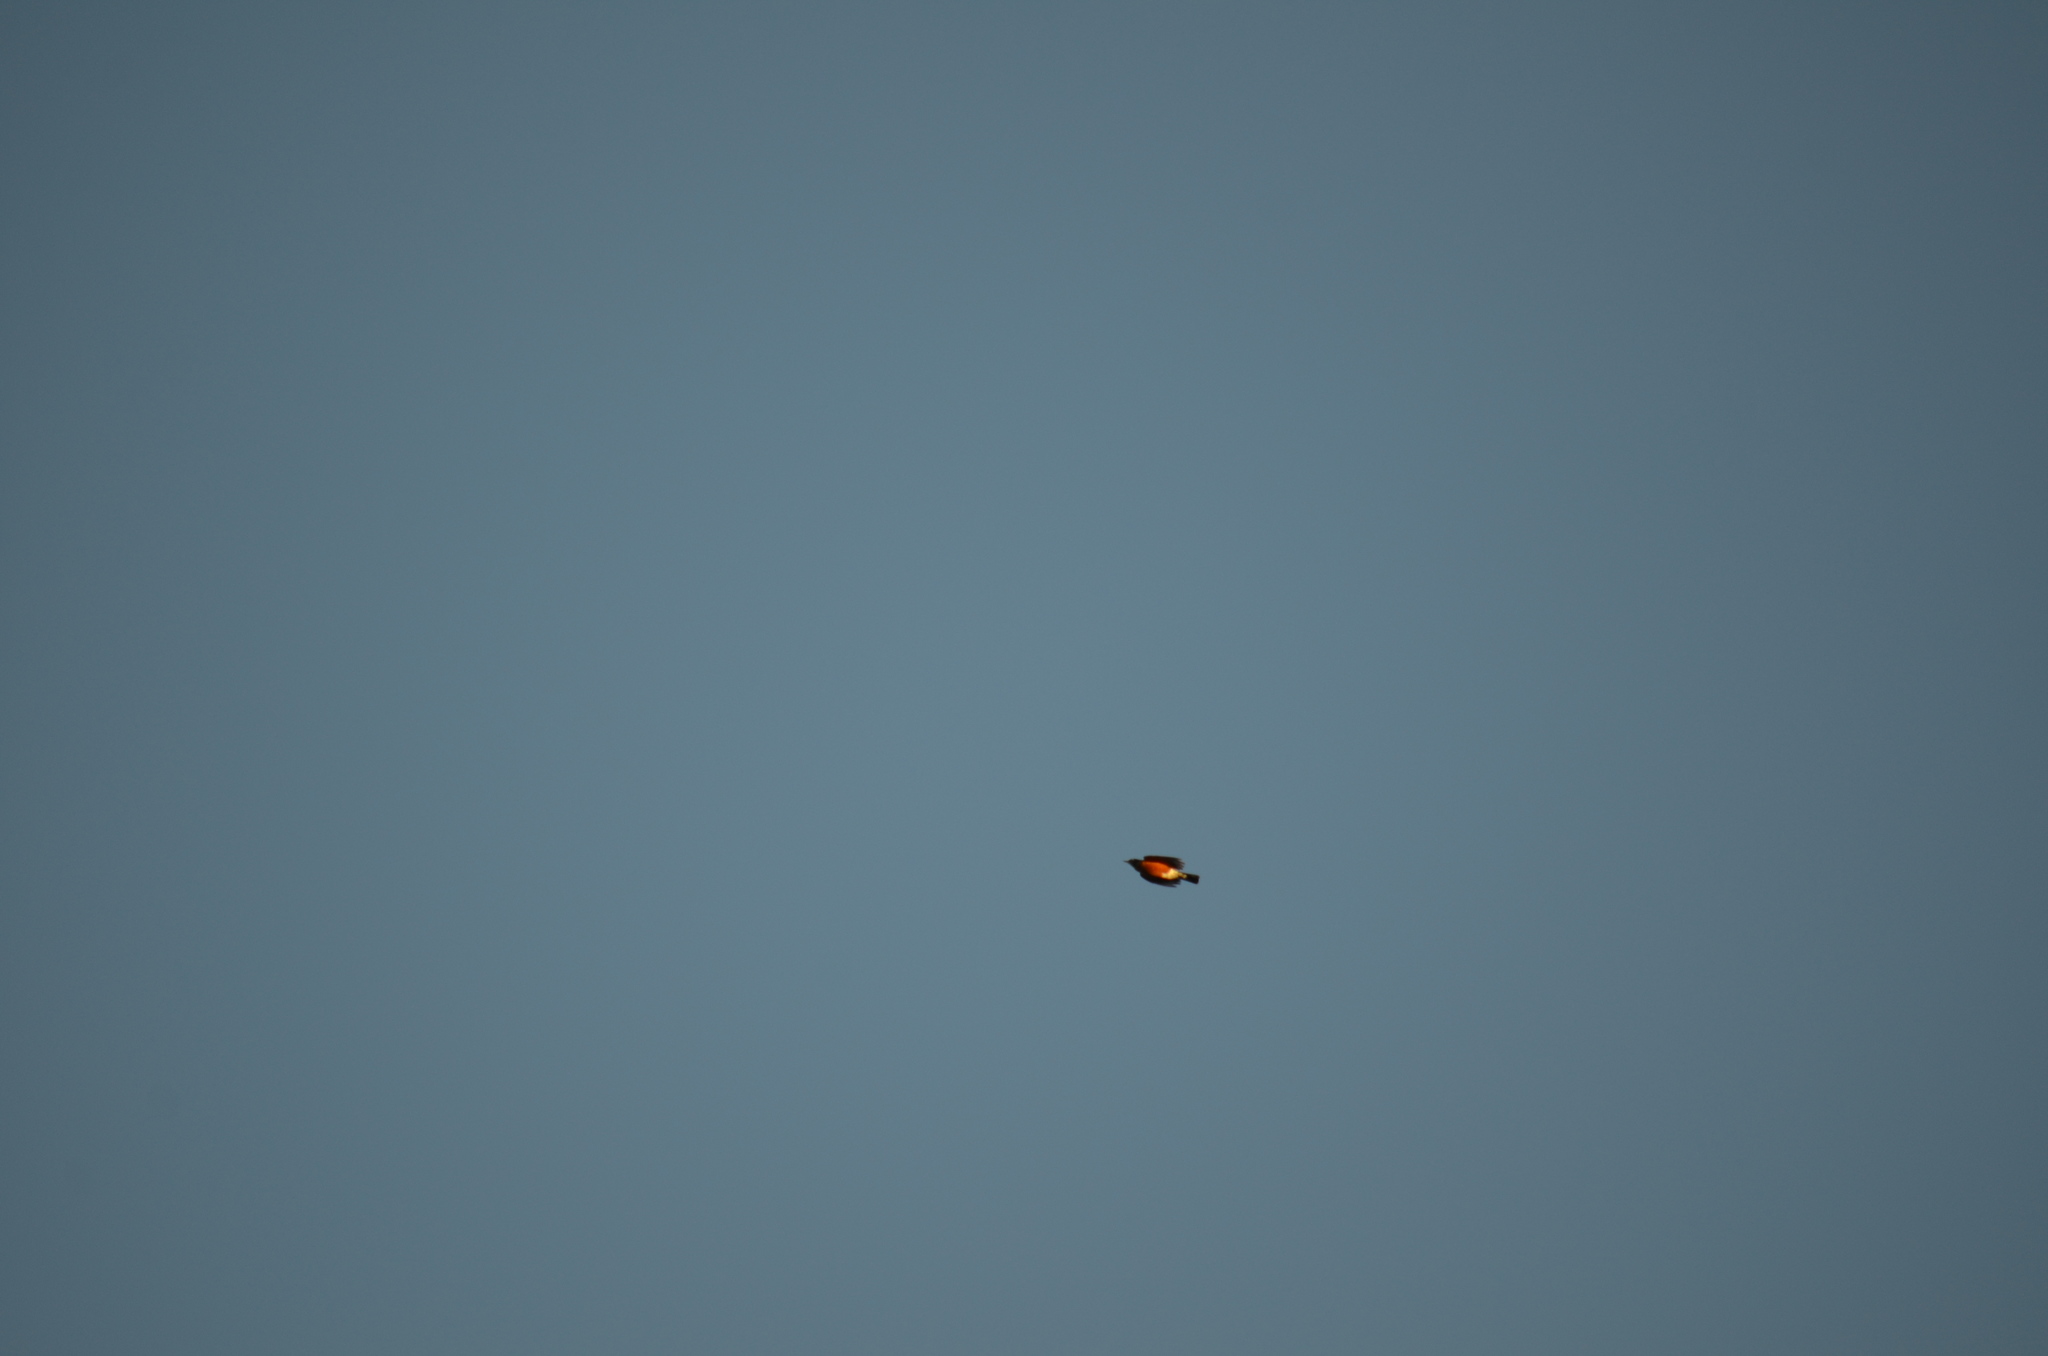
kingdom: Animalia
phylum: Chordata
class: Aves
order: Passeriformes
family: Turdidae
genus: Turdus
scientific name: Turdus migratorius
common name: American robin
